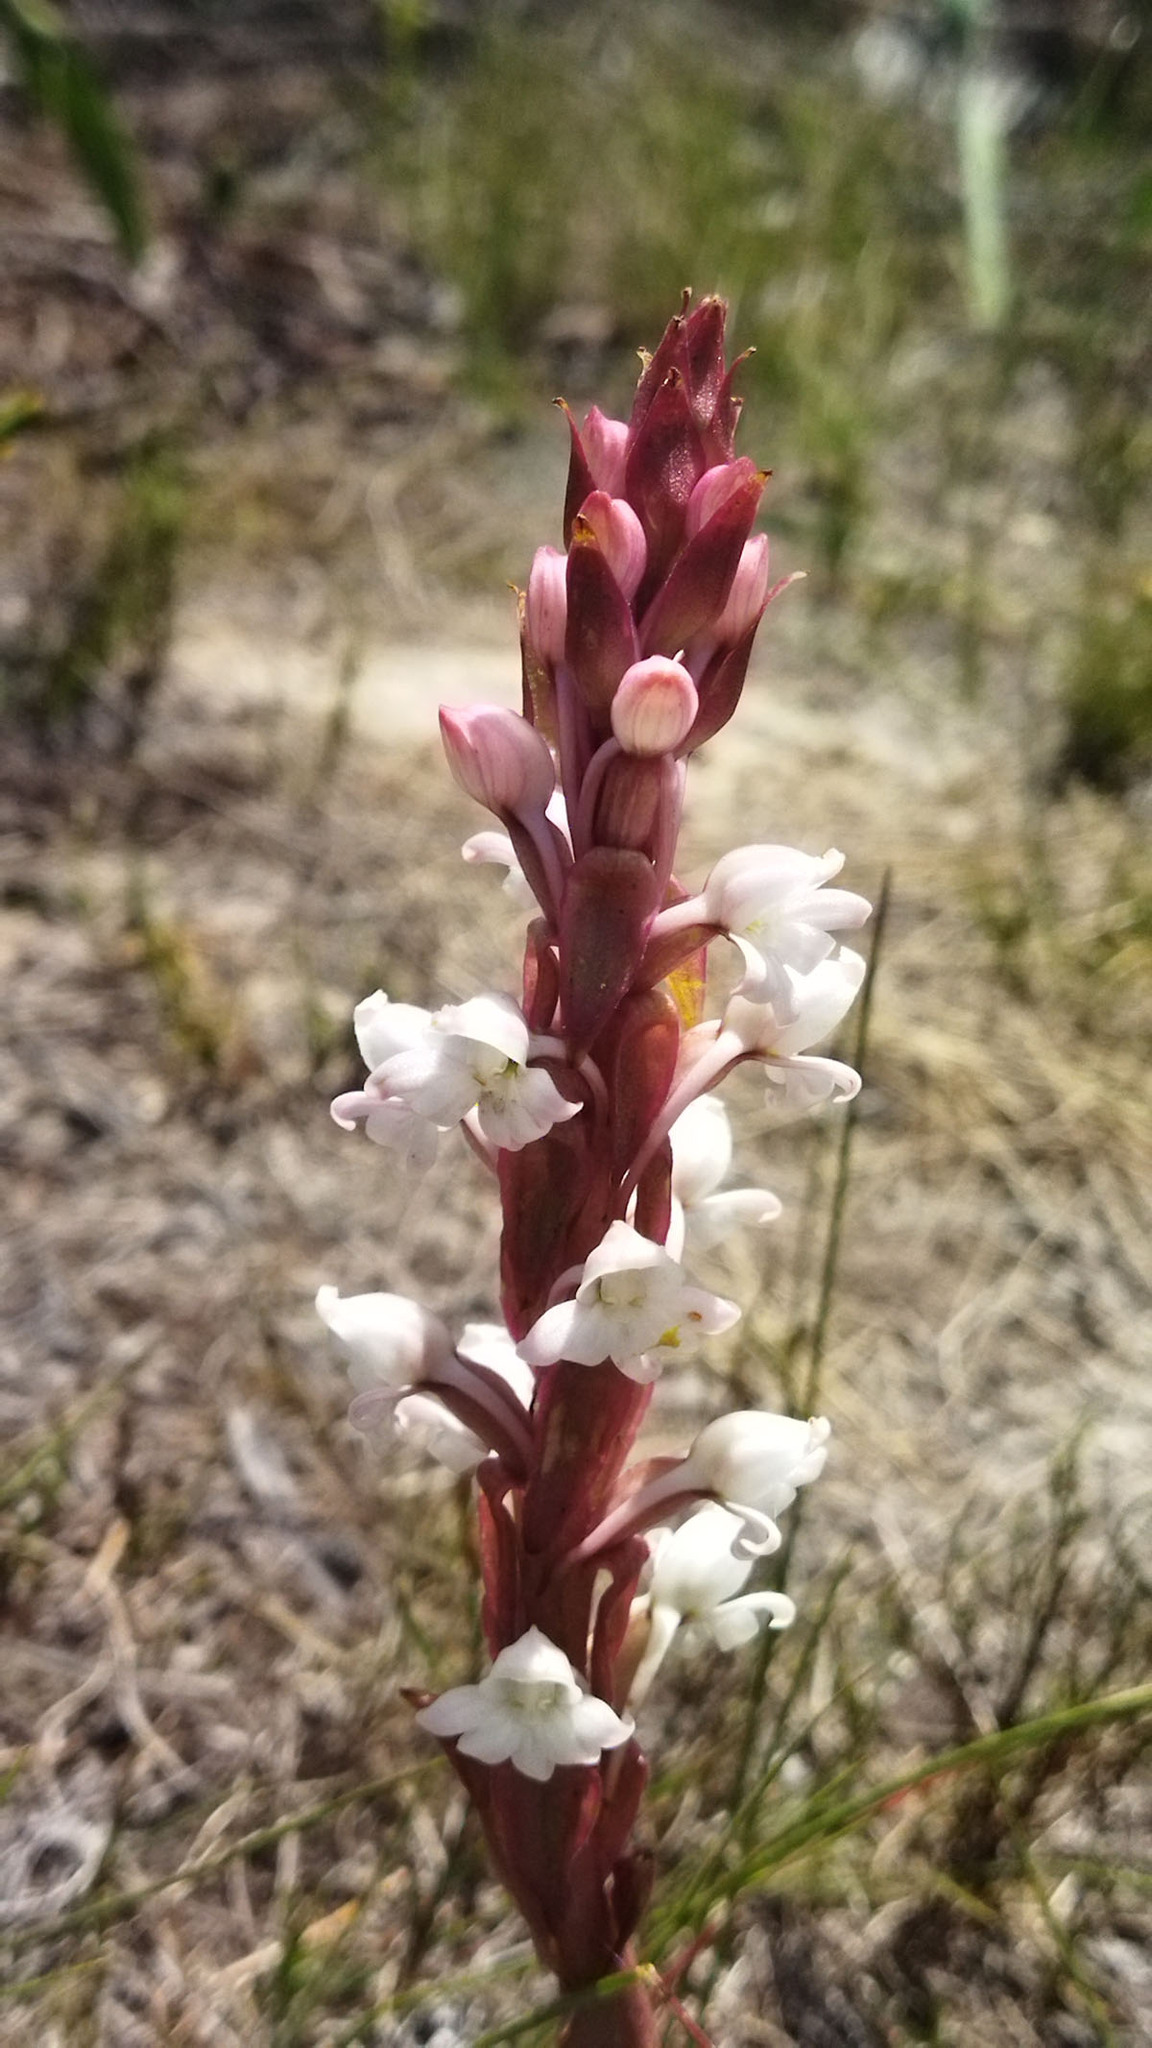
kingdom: Plantae
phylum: Tracheophyta
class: Liliopsida
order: Asparagales
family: Orchidaceae
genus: Satyrium
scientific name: Satyrium acuminatum
